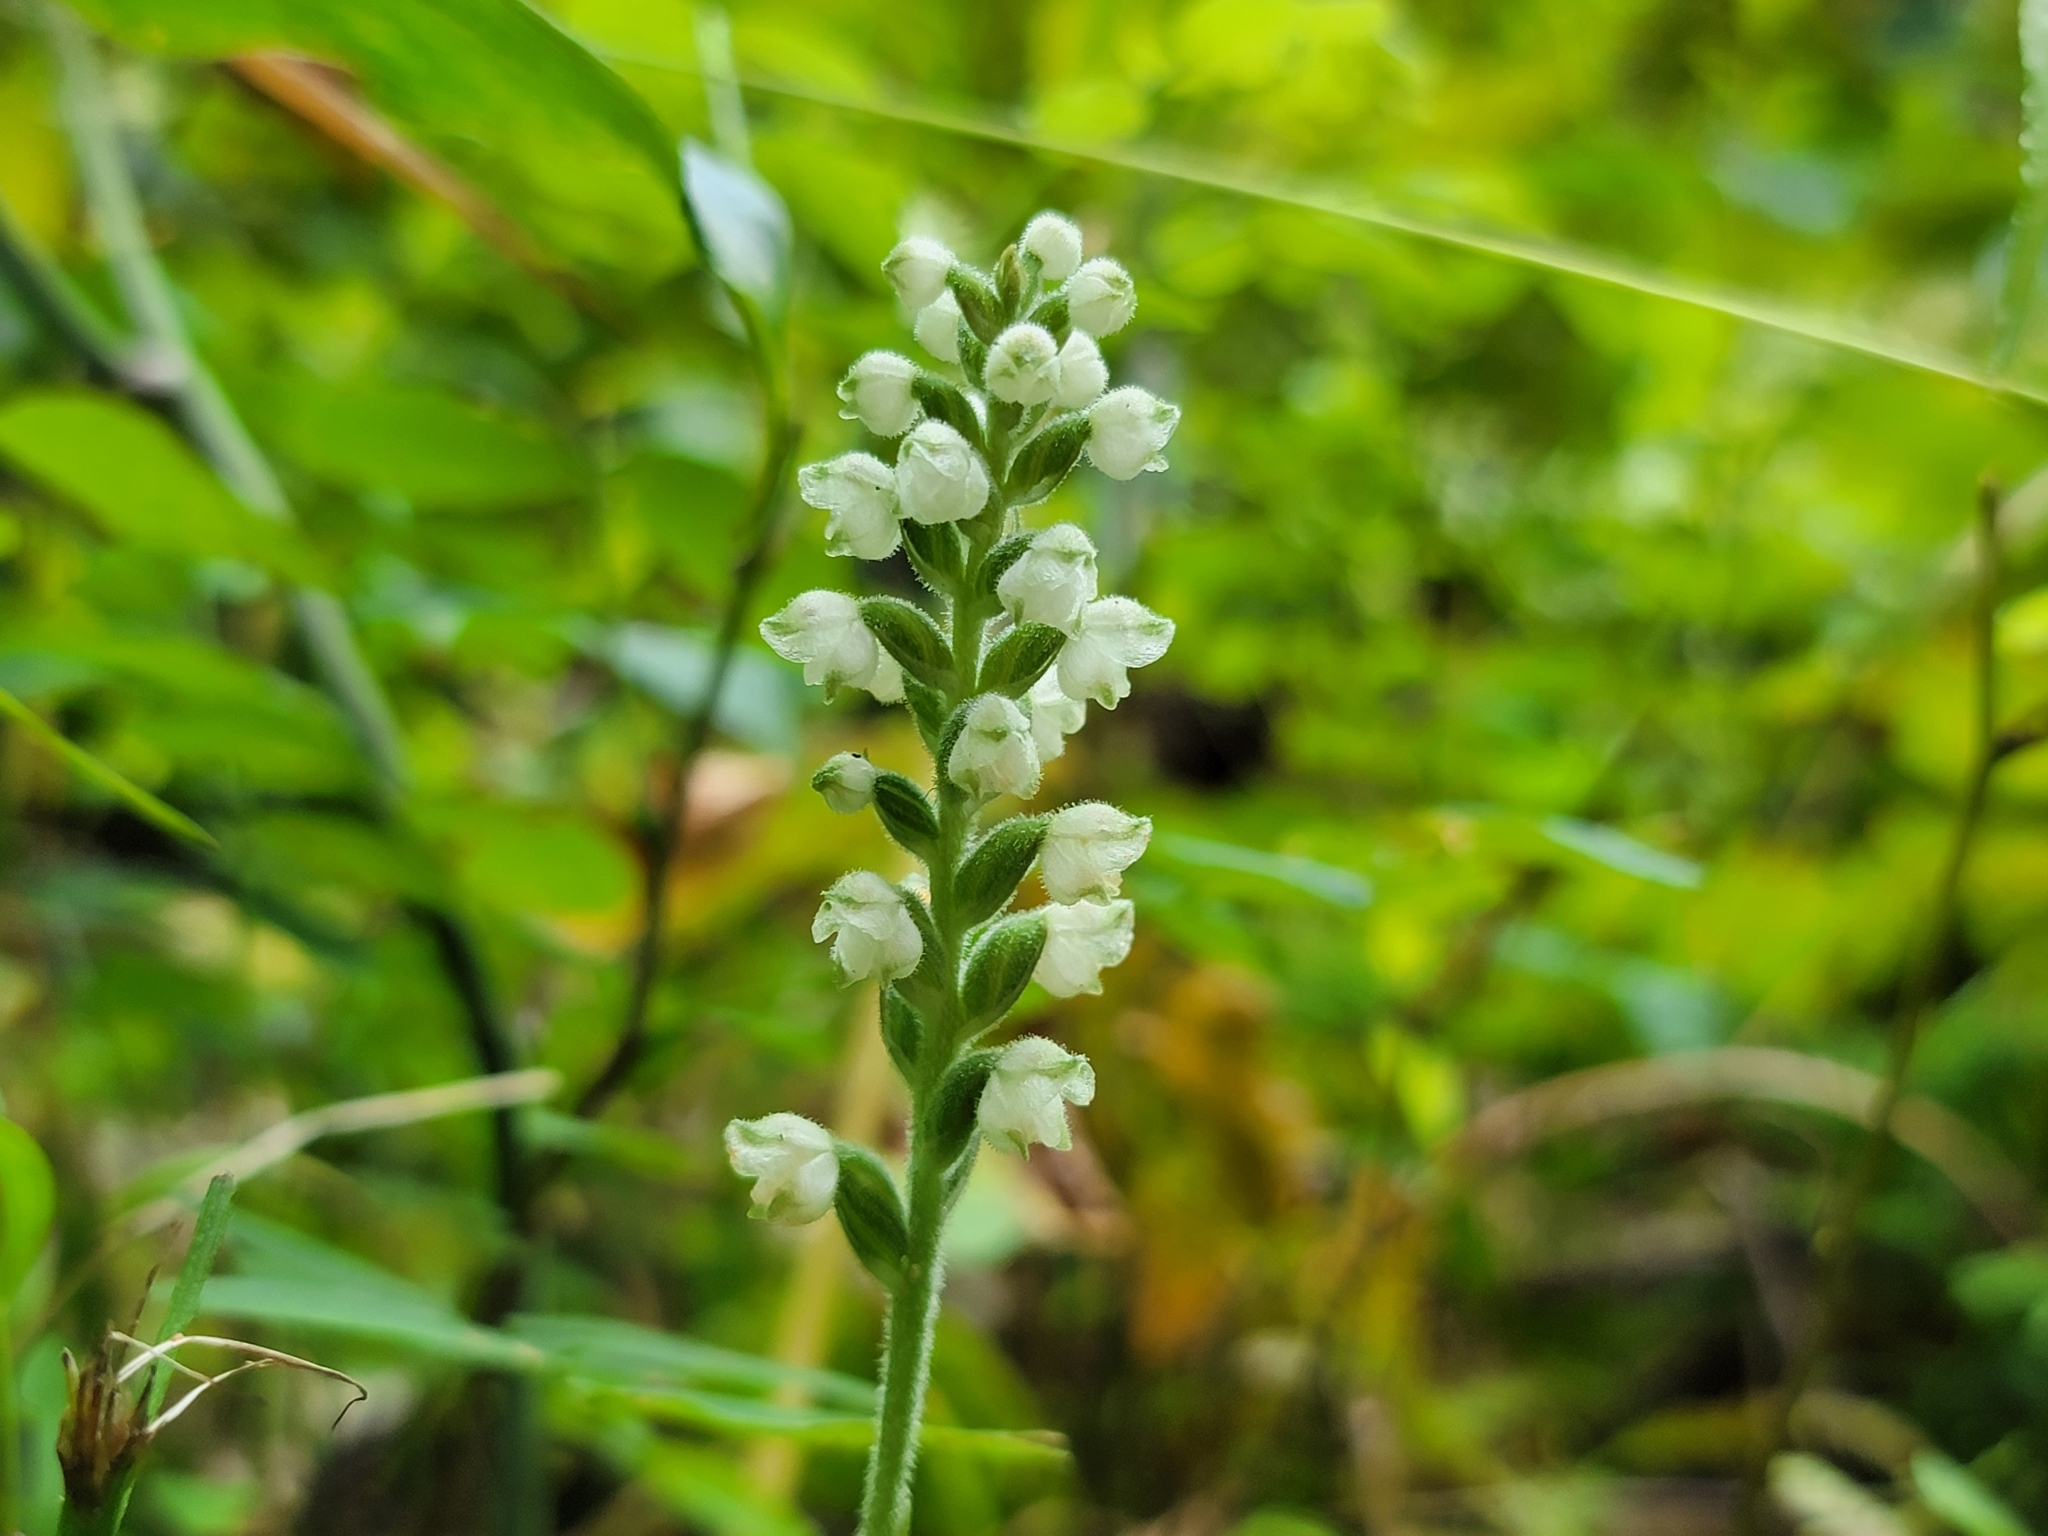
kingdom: Plantae
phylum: Tracheophyta
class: Liliopsida
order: Asparagales
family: Orchidaceae
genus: Goodyera
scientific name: Goodyera pubescens
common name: Downy rattlesnake-plantain
